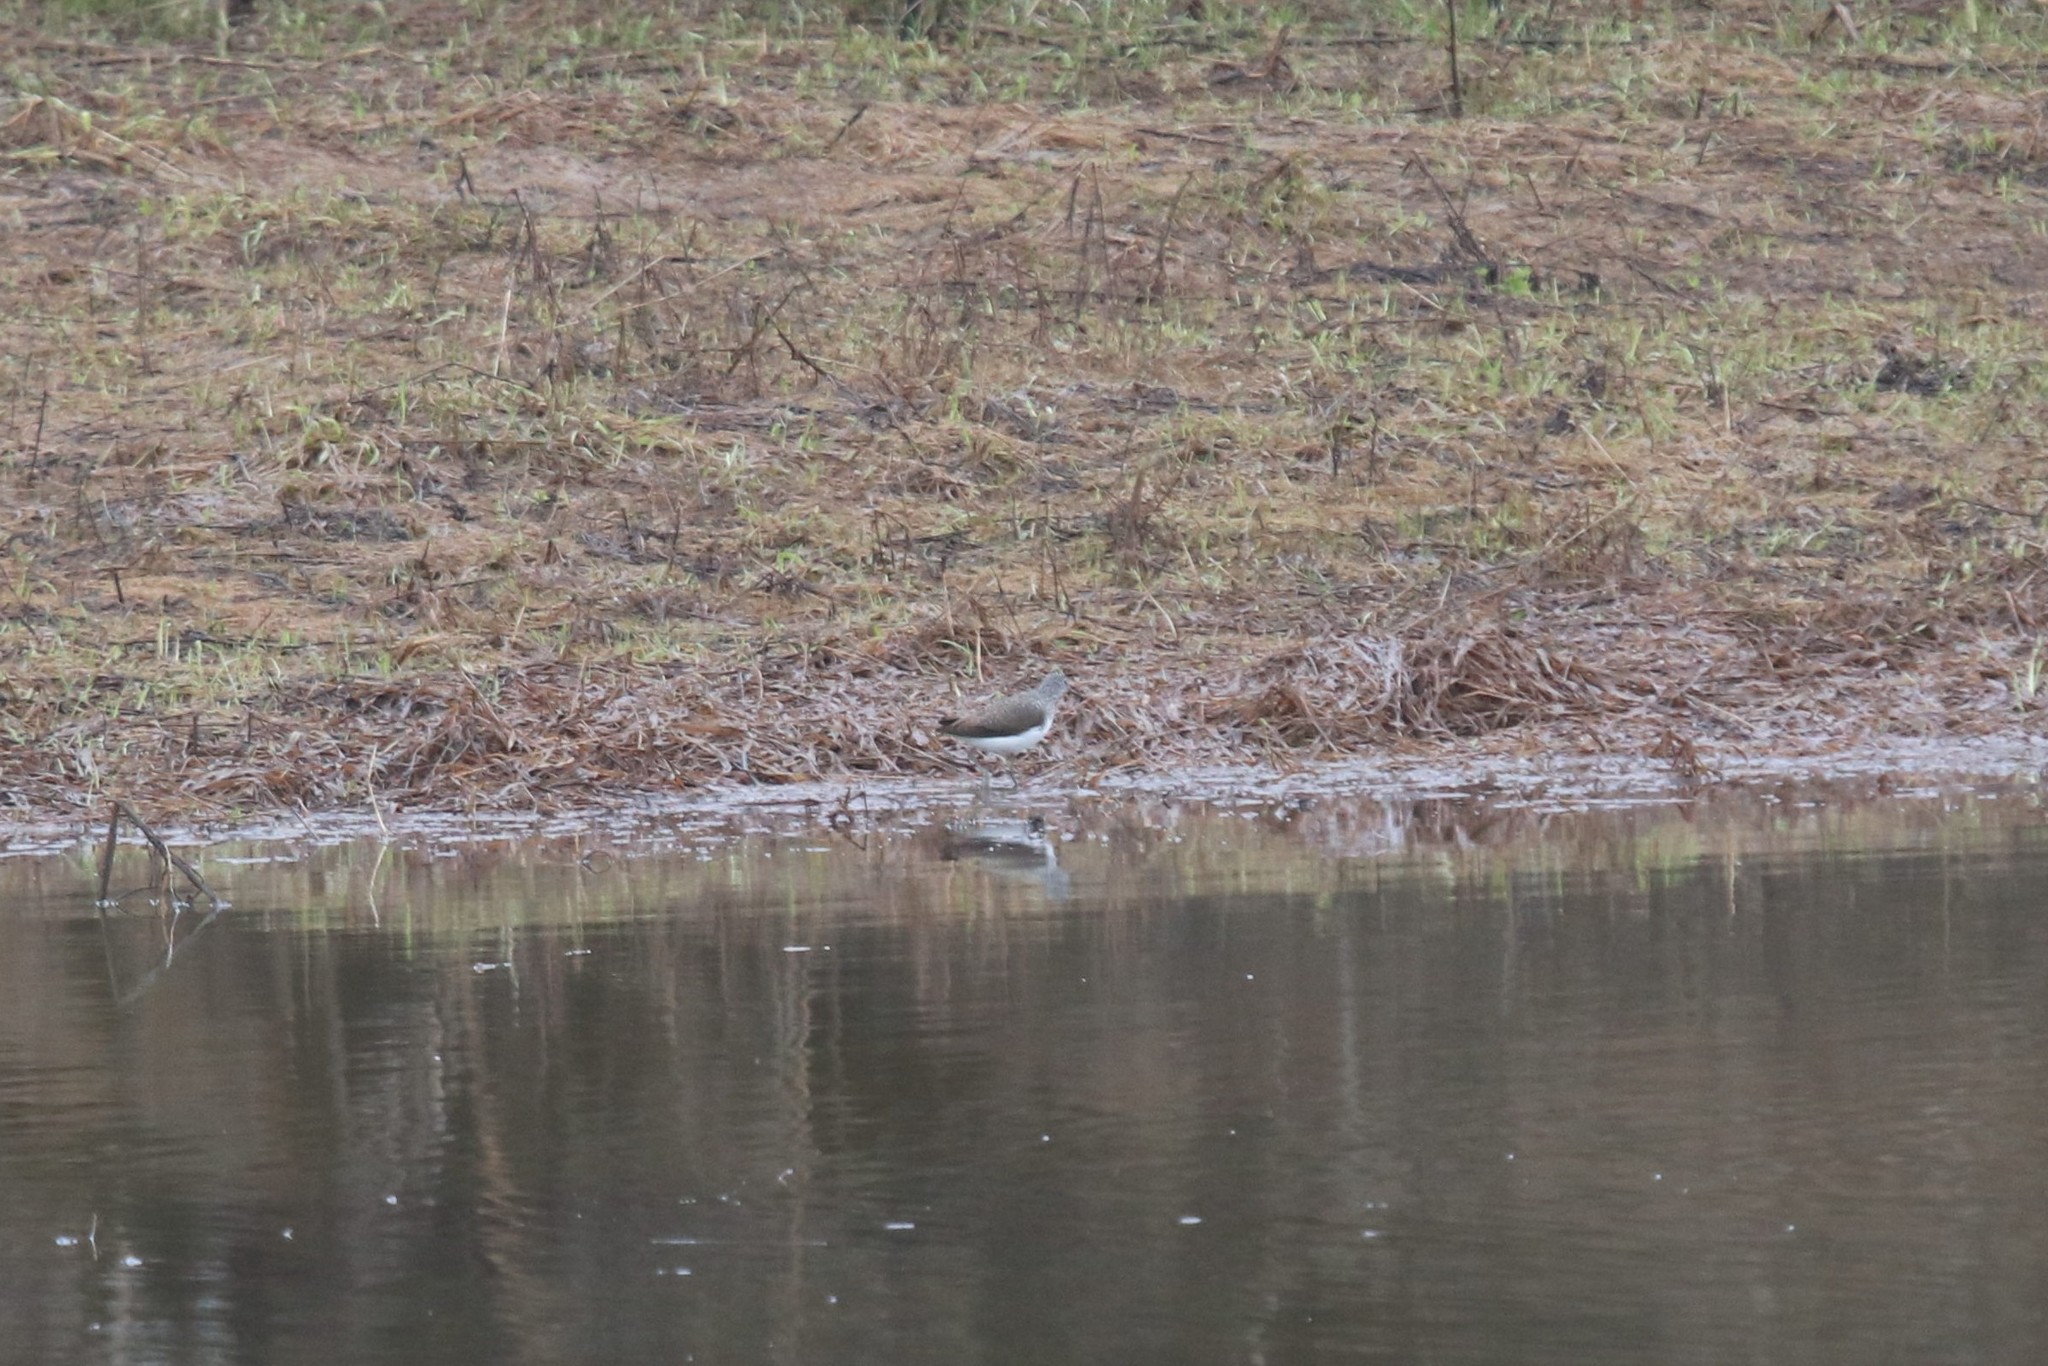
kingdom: Animalia
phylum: Chordata
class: Aves
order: Charadriiformes
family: Scolopacidae
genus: Tringa
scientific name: Tringa ochropus
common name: Green sandpiper
